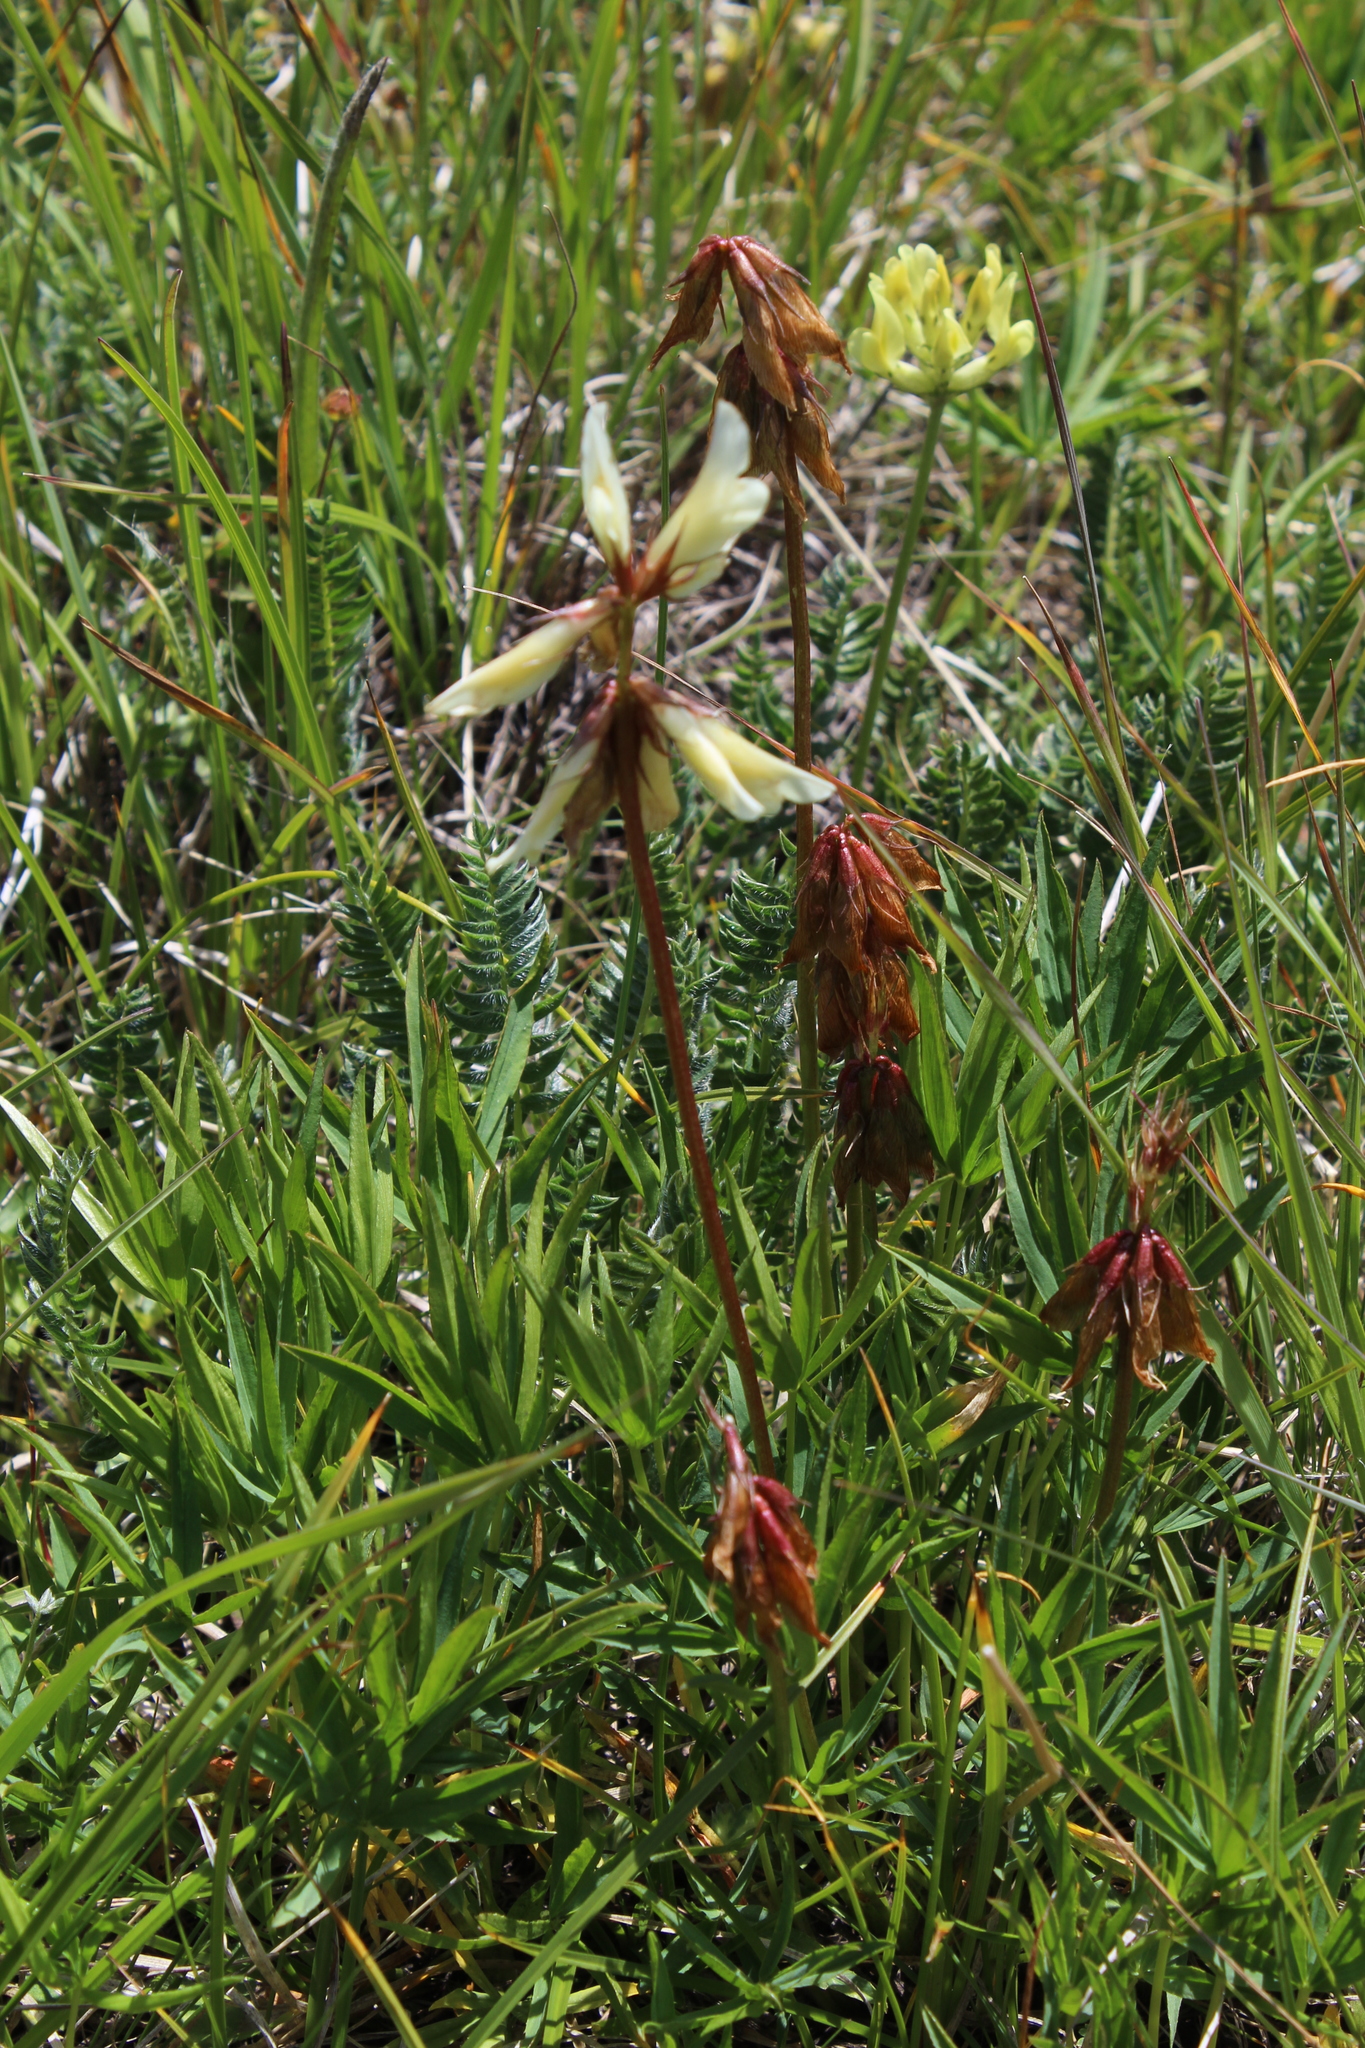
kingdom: Plantae
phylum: Tracheophyta
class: Magnoliopsida
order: Fabales
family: Fabaceae
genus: Trifolium
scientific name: Trifolium polyphyllum
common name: Many-leaf clover
